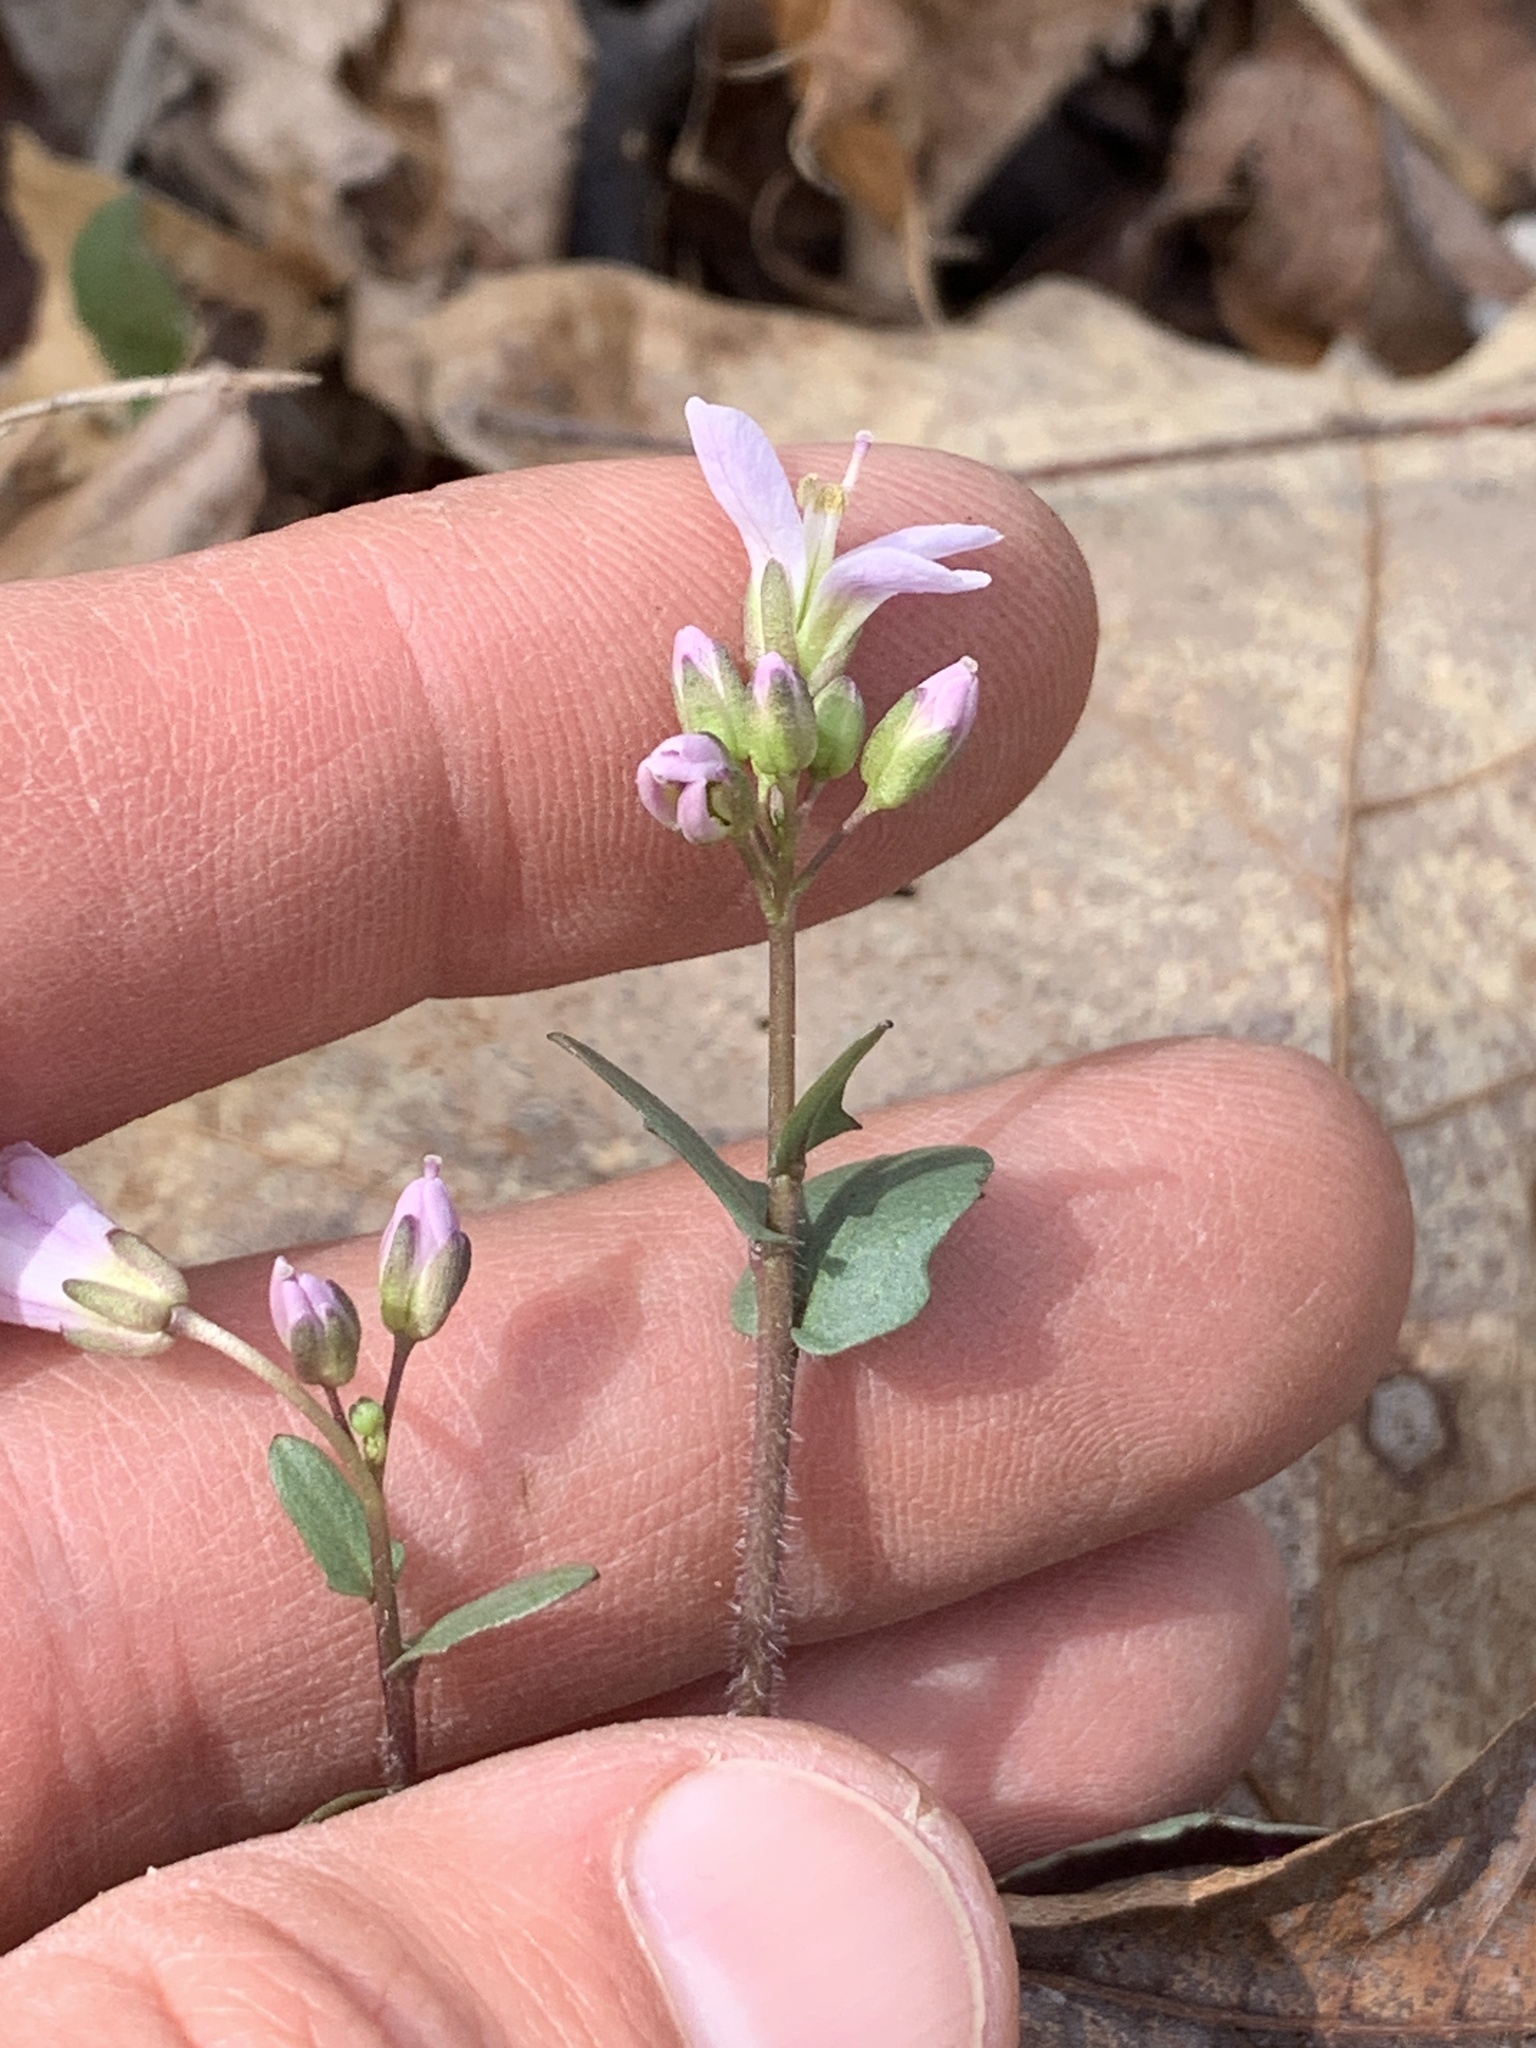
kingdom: Plantae
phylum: Tracheophyta
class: Magnoliopsida
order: Brassicales
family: Brassicaceae
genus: Cardamine
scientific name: Cardamine douglassii
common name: Purple cress
